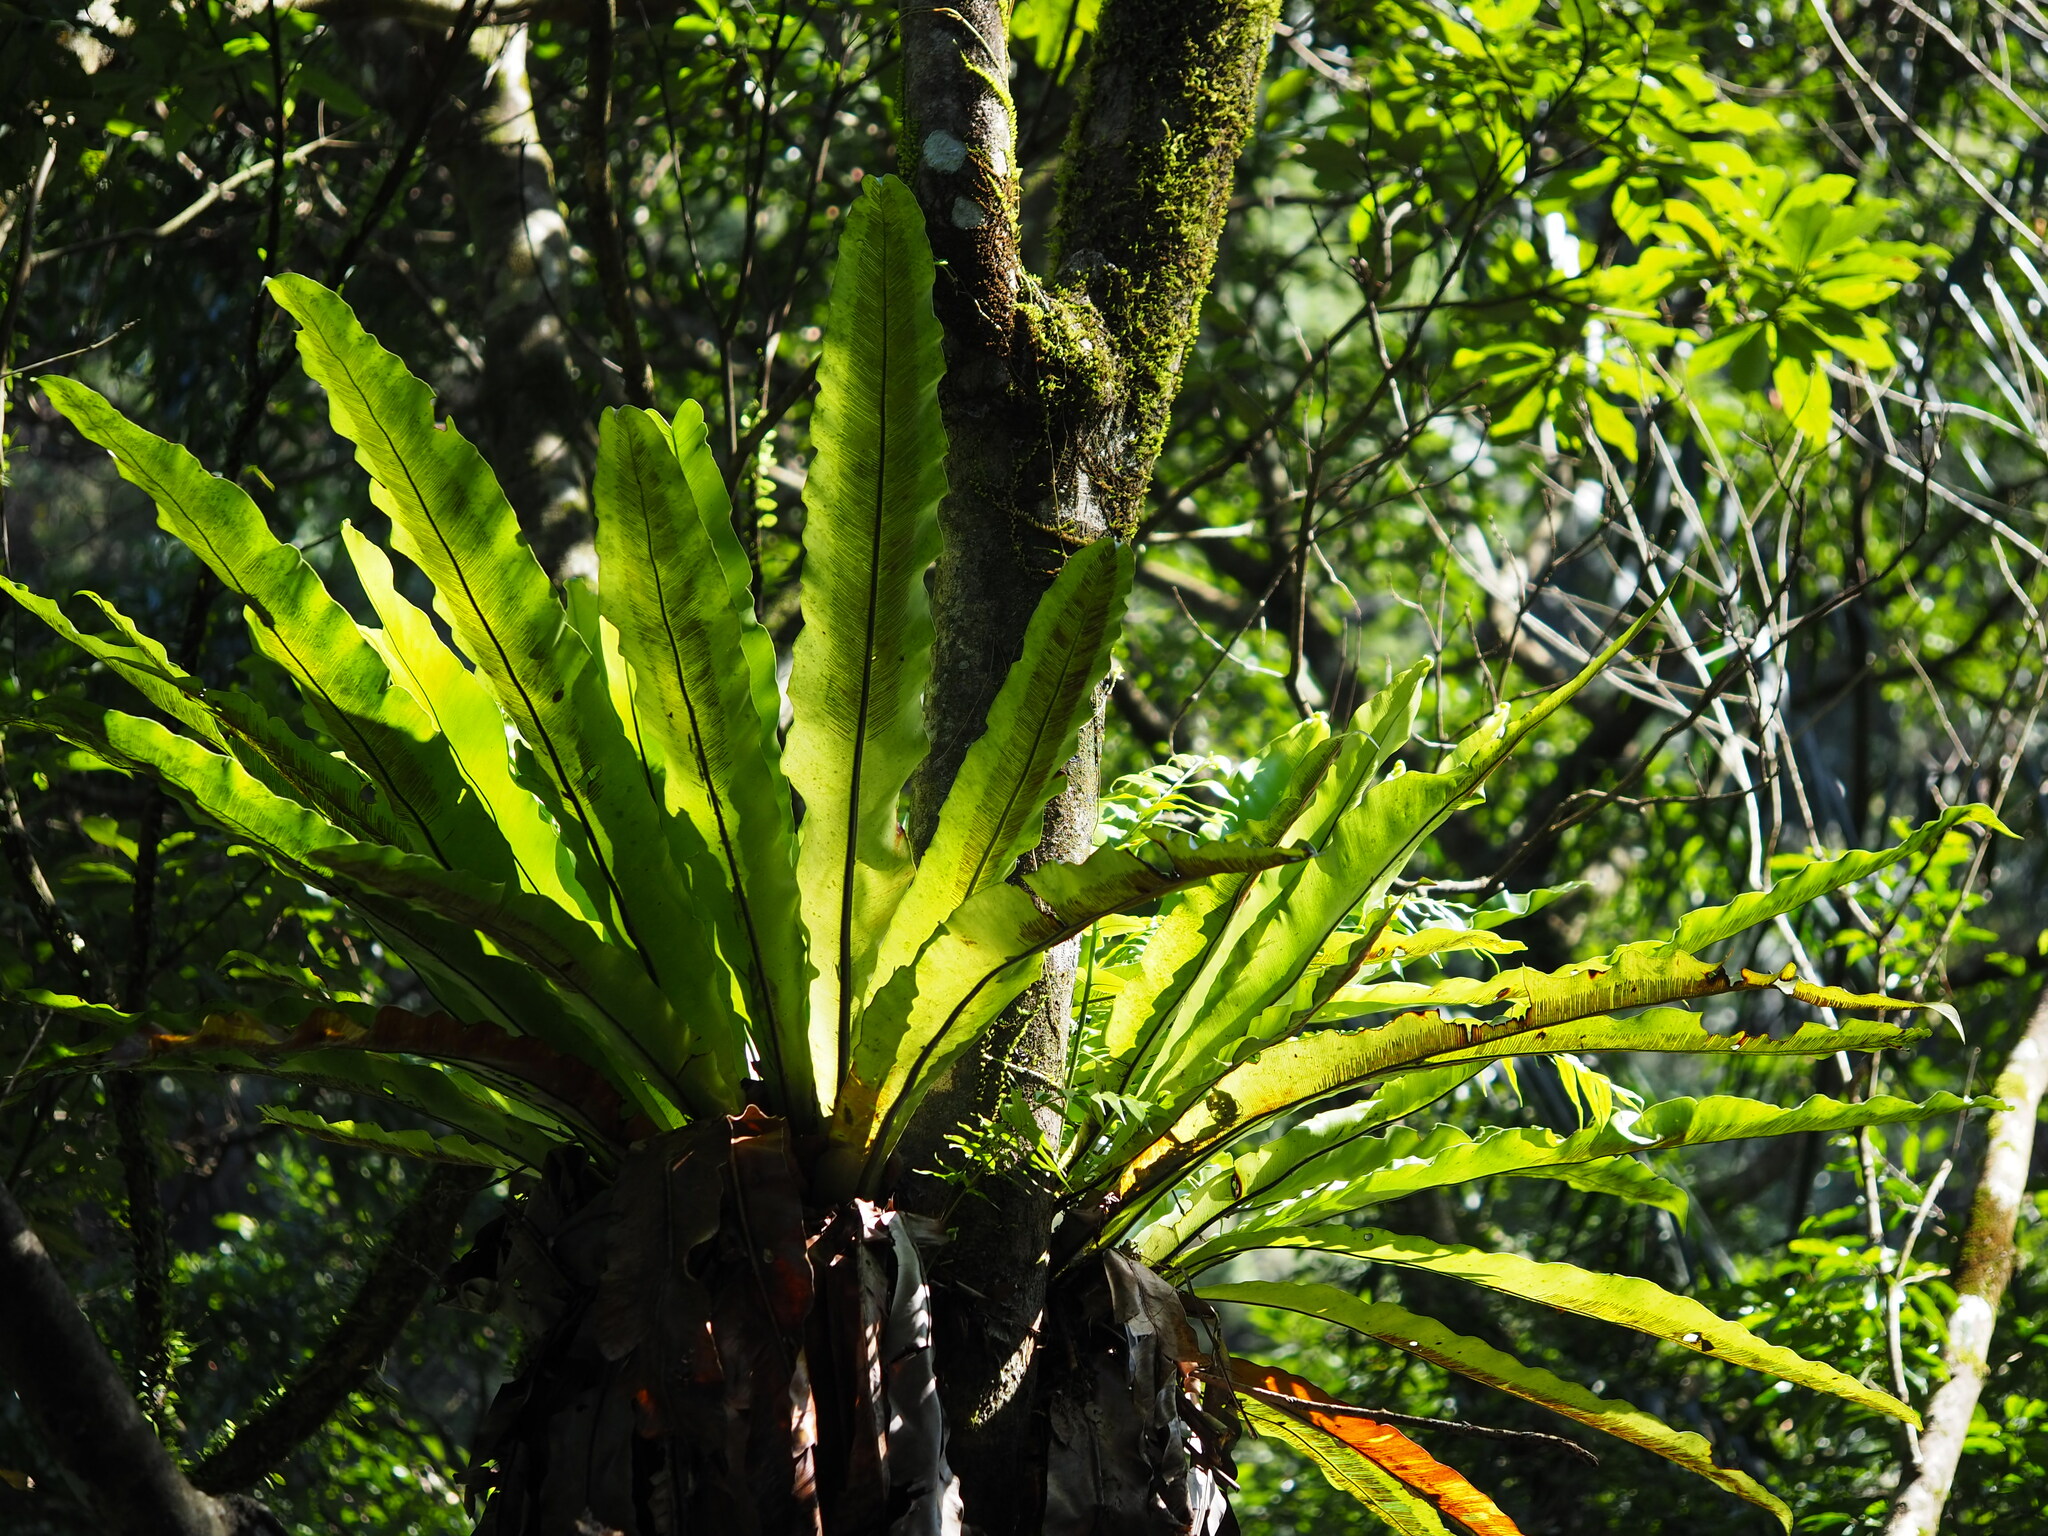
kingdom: Plantae
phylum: Tracheophyta
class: Polypodiopsida
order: Polypodiales
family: Aspleniaceae
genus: Asplenium
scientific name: Asplenium nidus
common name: Bird's-nest fern
